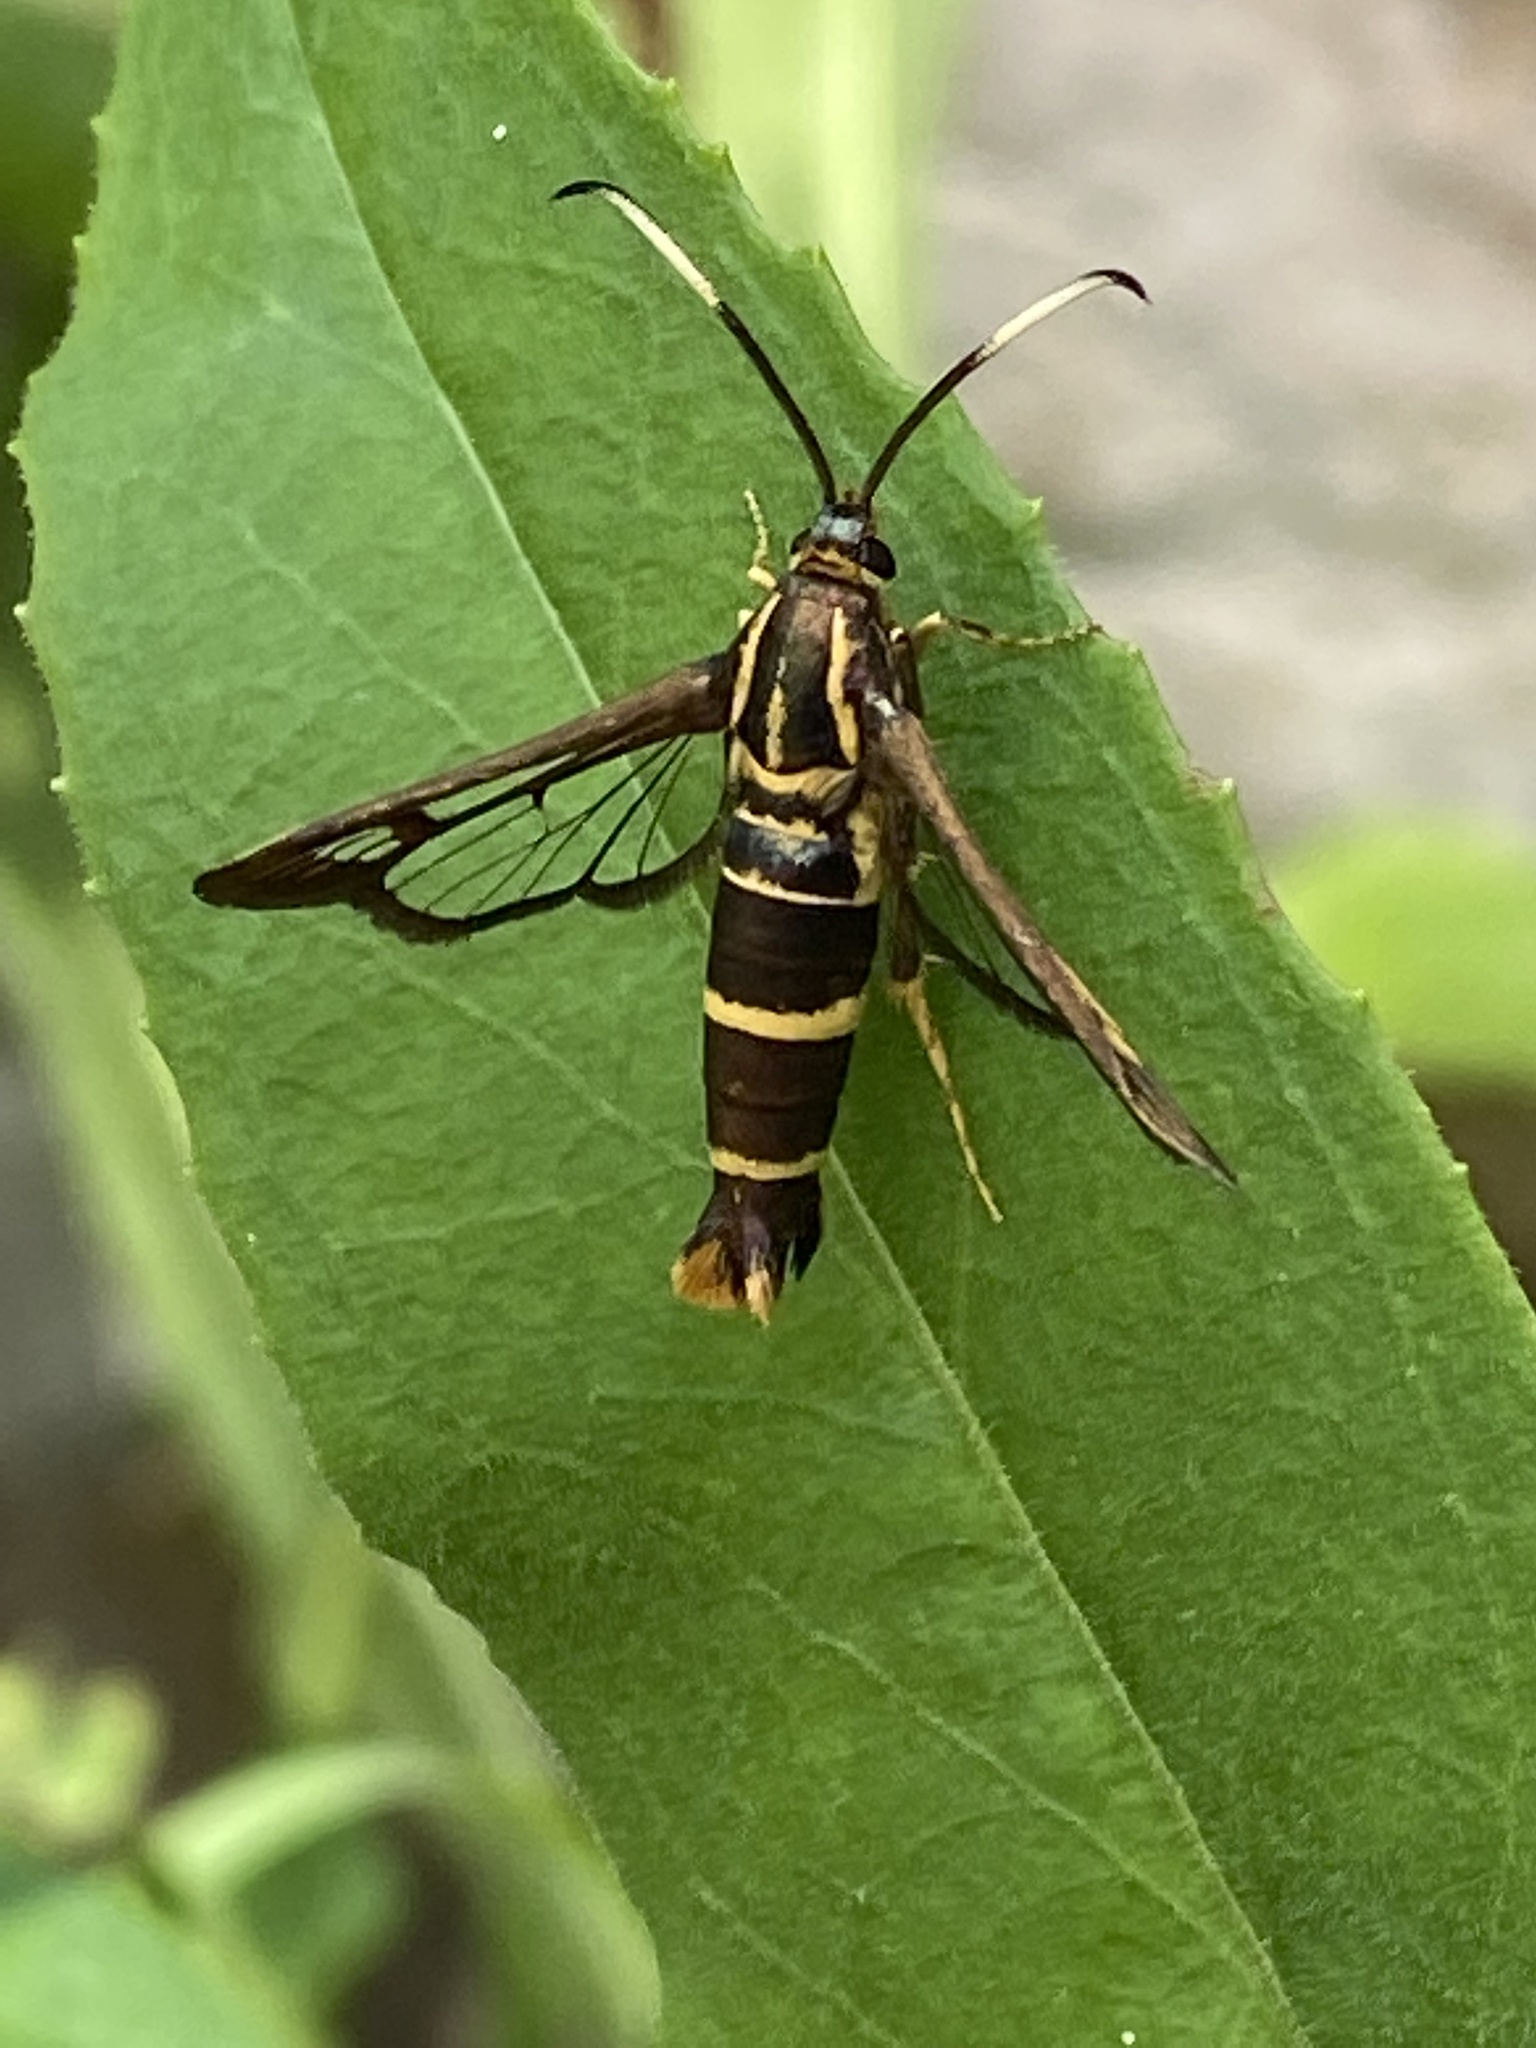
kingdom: Animalia
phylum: Arthropoda
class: Insecta
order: Lepidoptera
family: Sesiidae
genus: Carmenta
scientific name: Carmenta bassiformis
